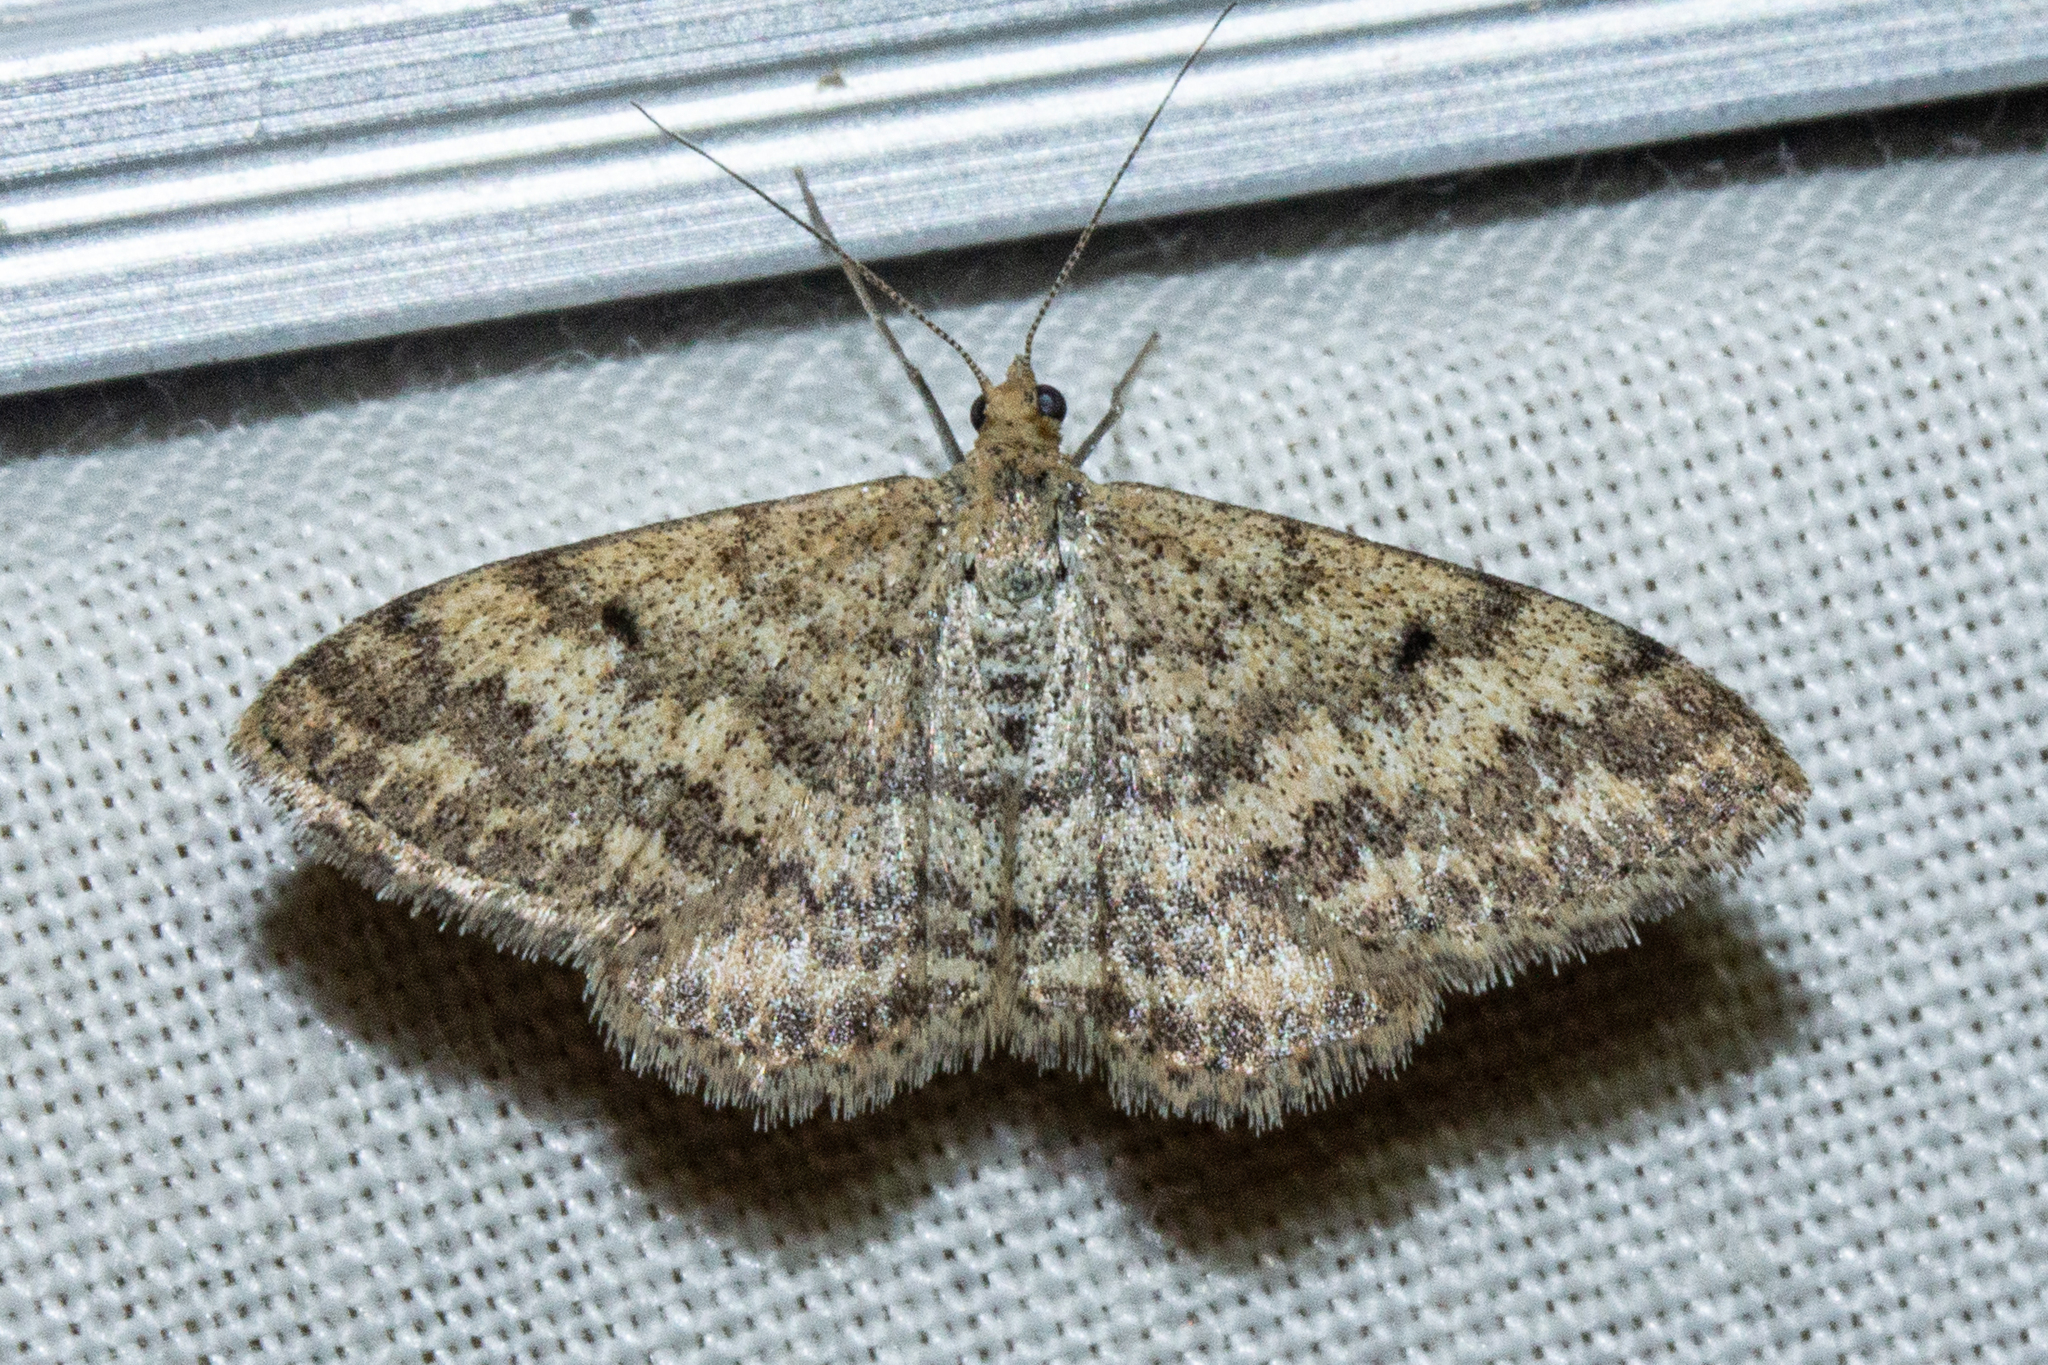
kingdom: Animalia
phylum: Arthropoda
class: Insecta
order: Lepidoptera
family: Geometridae
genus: Scopula
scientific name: Scopula rubraria
